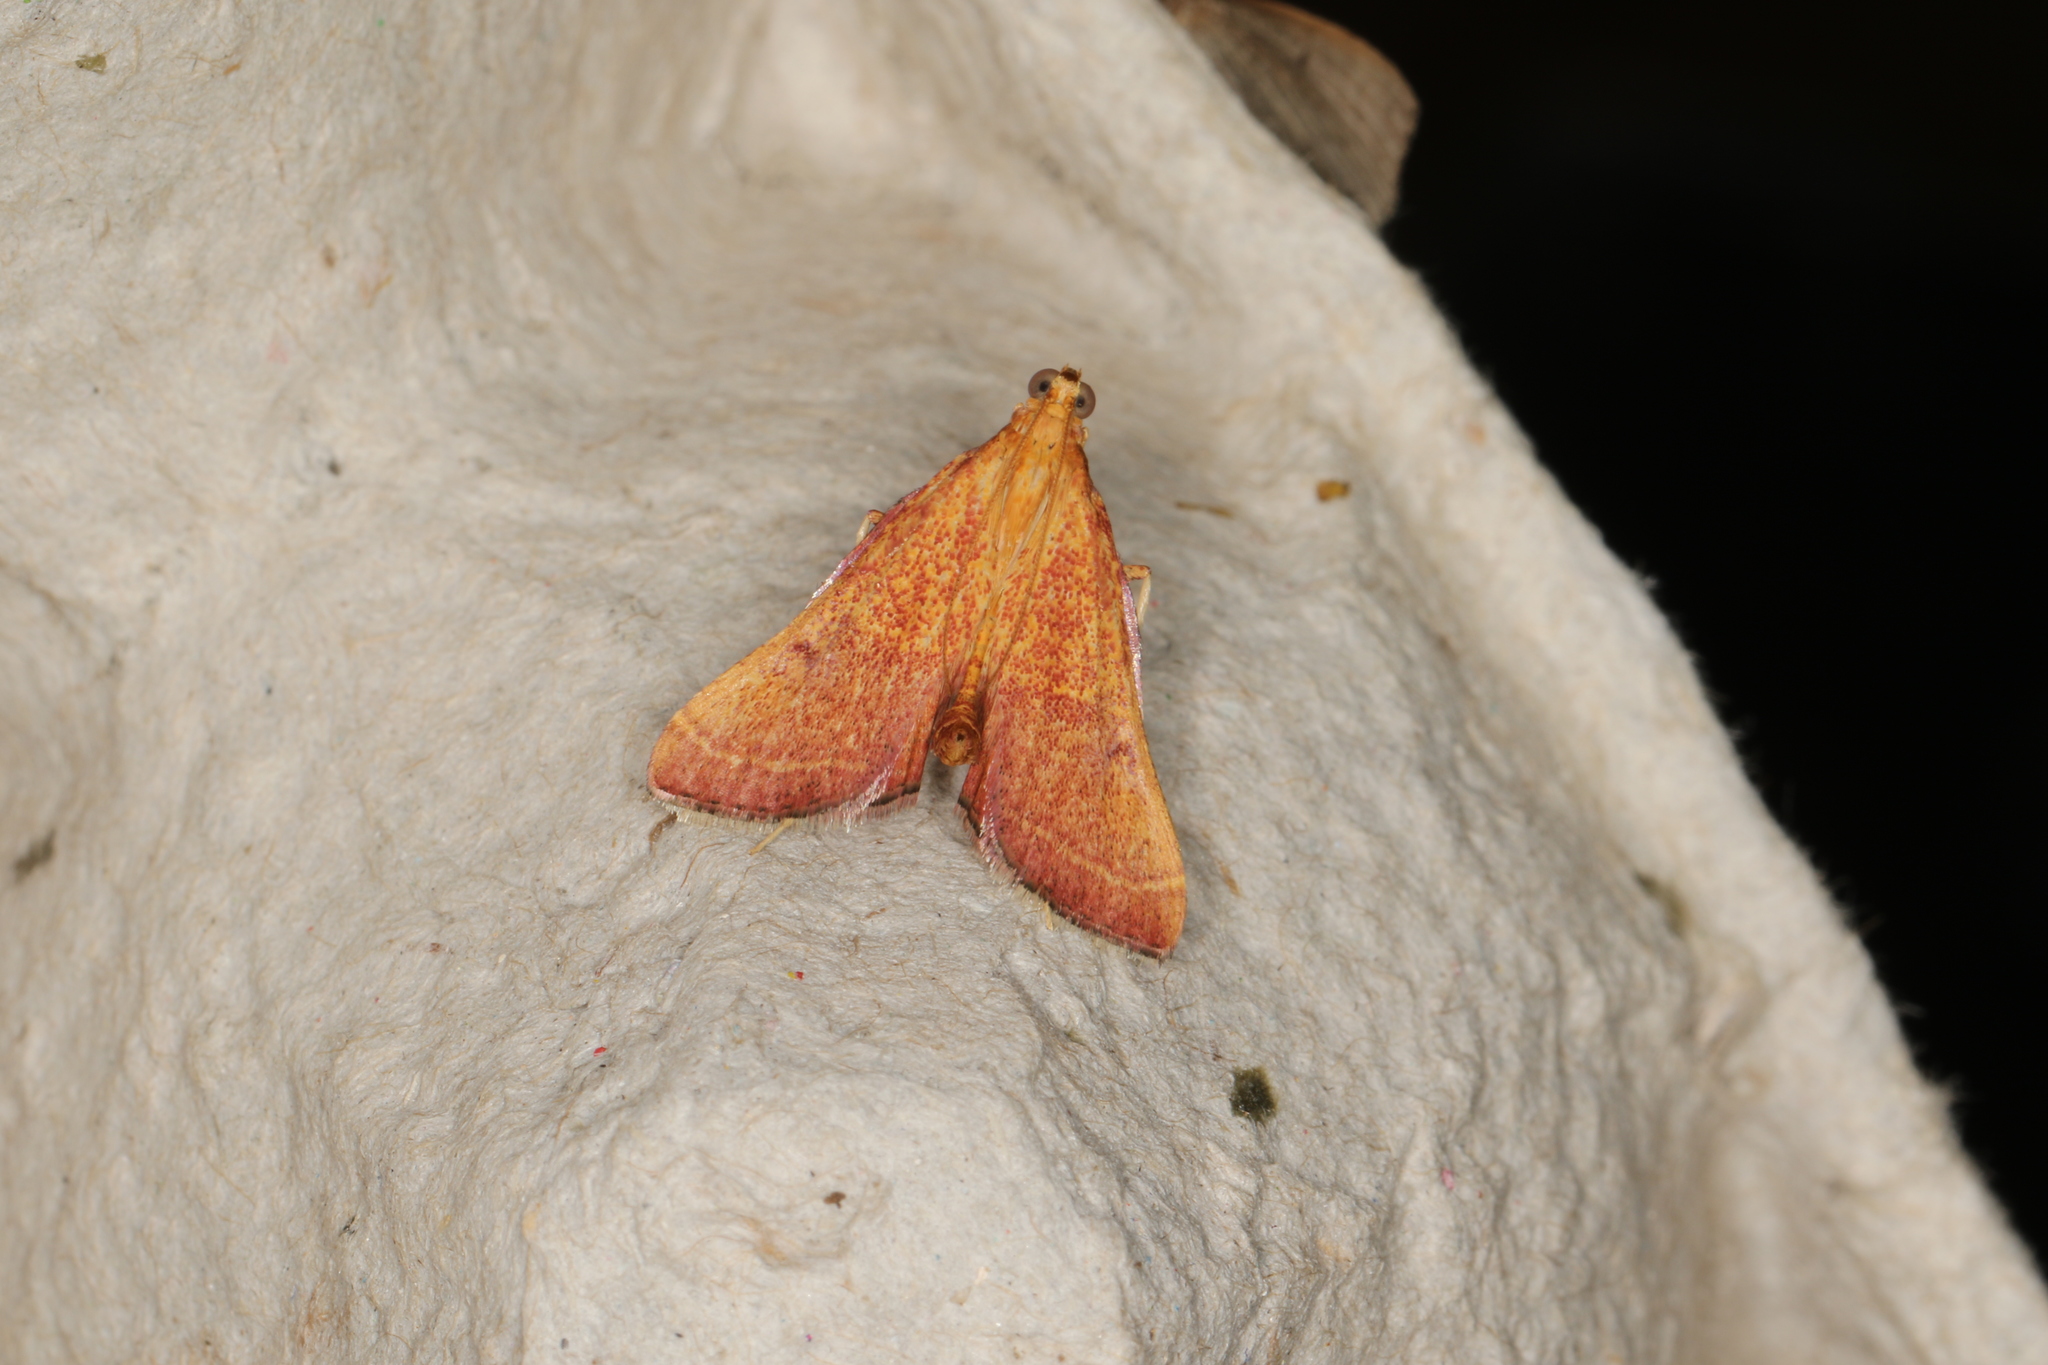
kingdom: Animalia
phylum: Arthropoda
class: Insecta
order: Lepidoptera
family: Pyralidae
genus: Endotricha
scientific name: Endotricha pyrosalis
